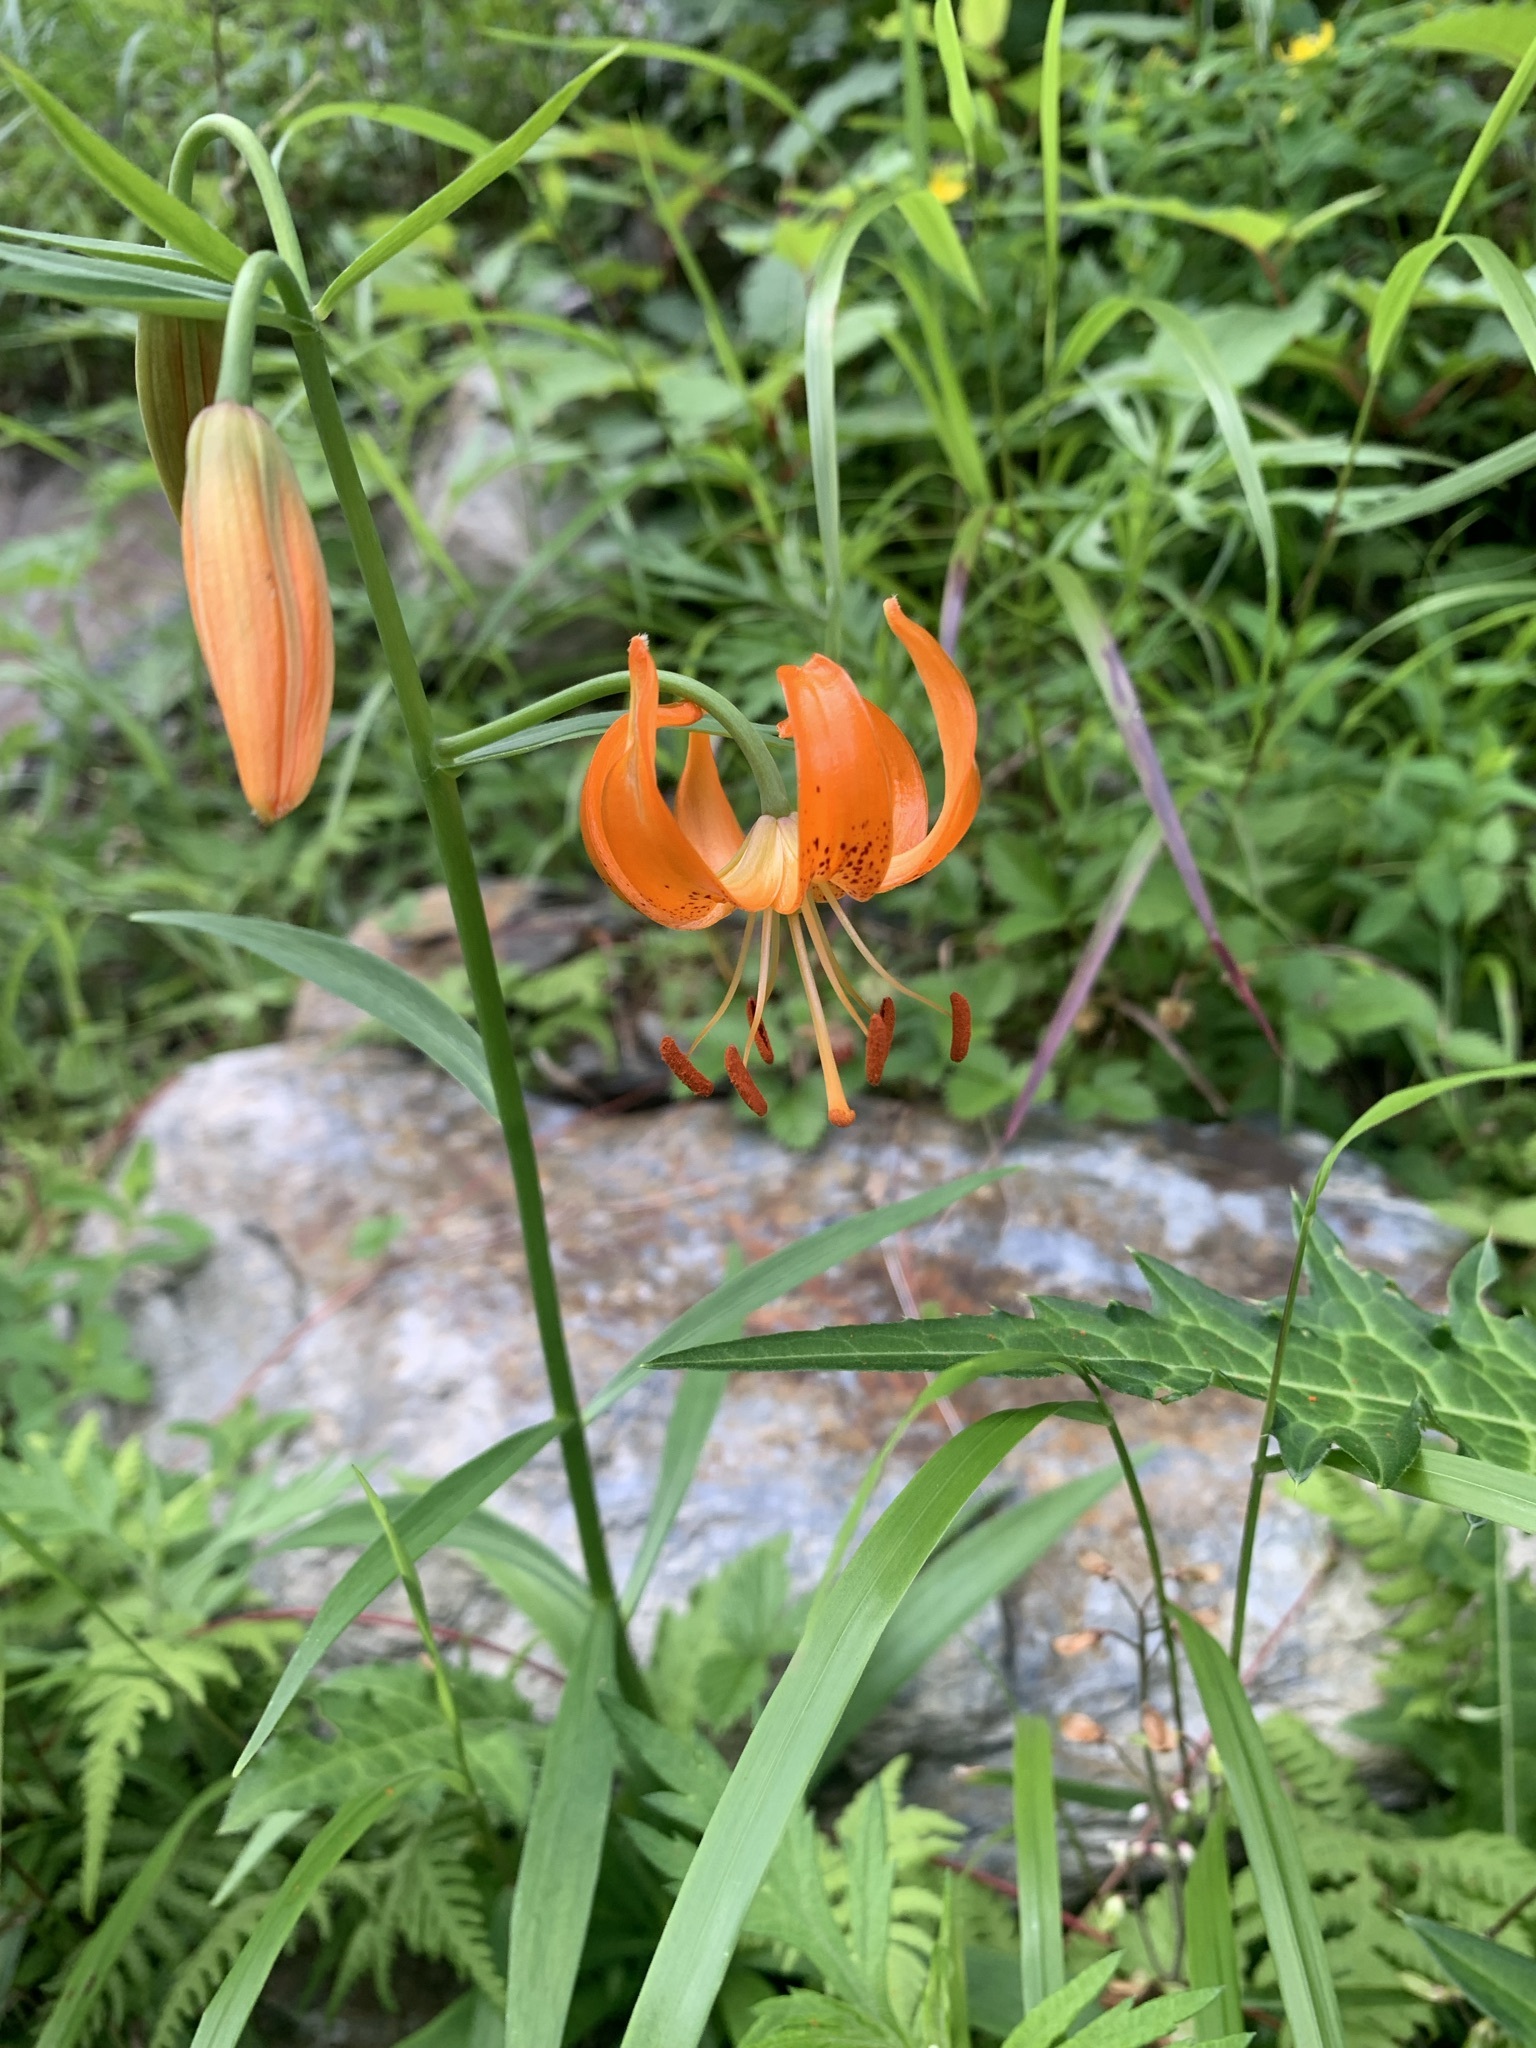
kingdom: Plantae
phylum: Tracheophyta
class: Liliopsida
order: Liliales
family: Liliaceae
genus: Lilium
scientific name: Lilium medeoloides
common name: Wheel lily
